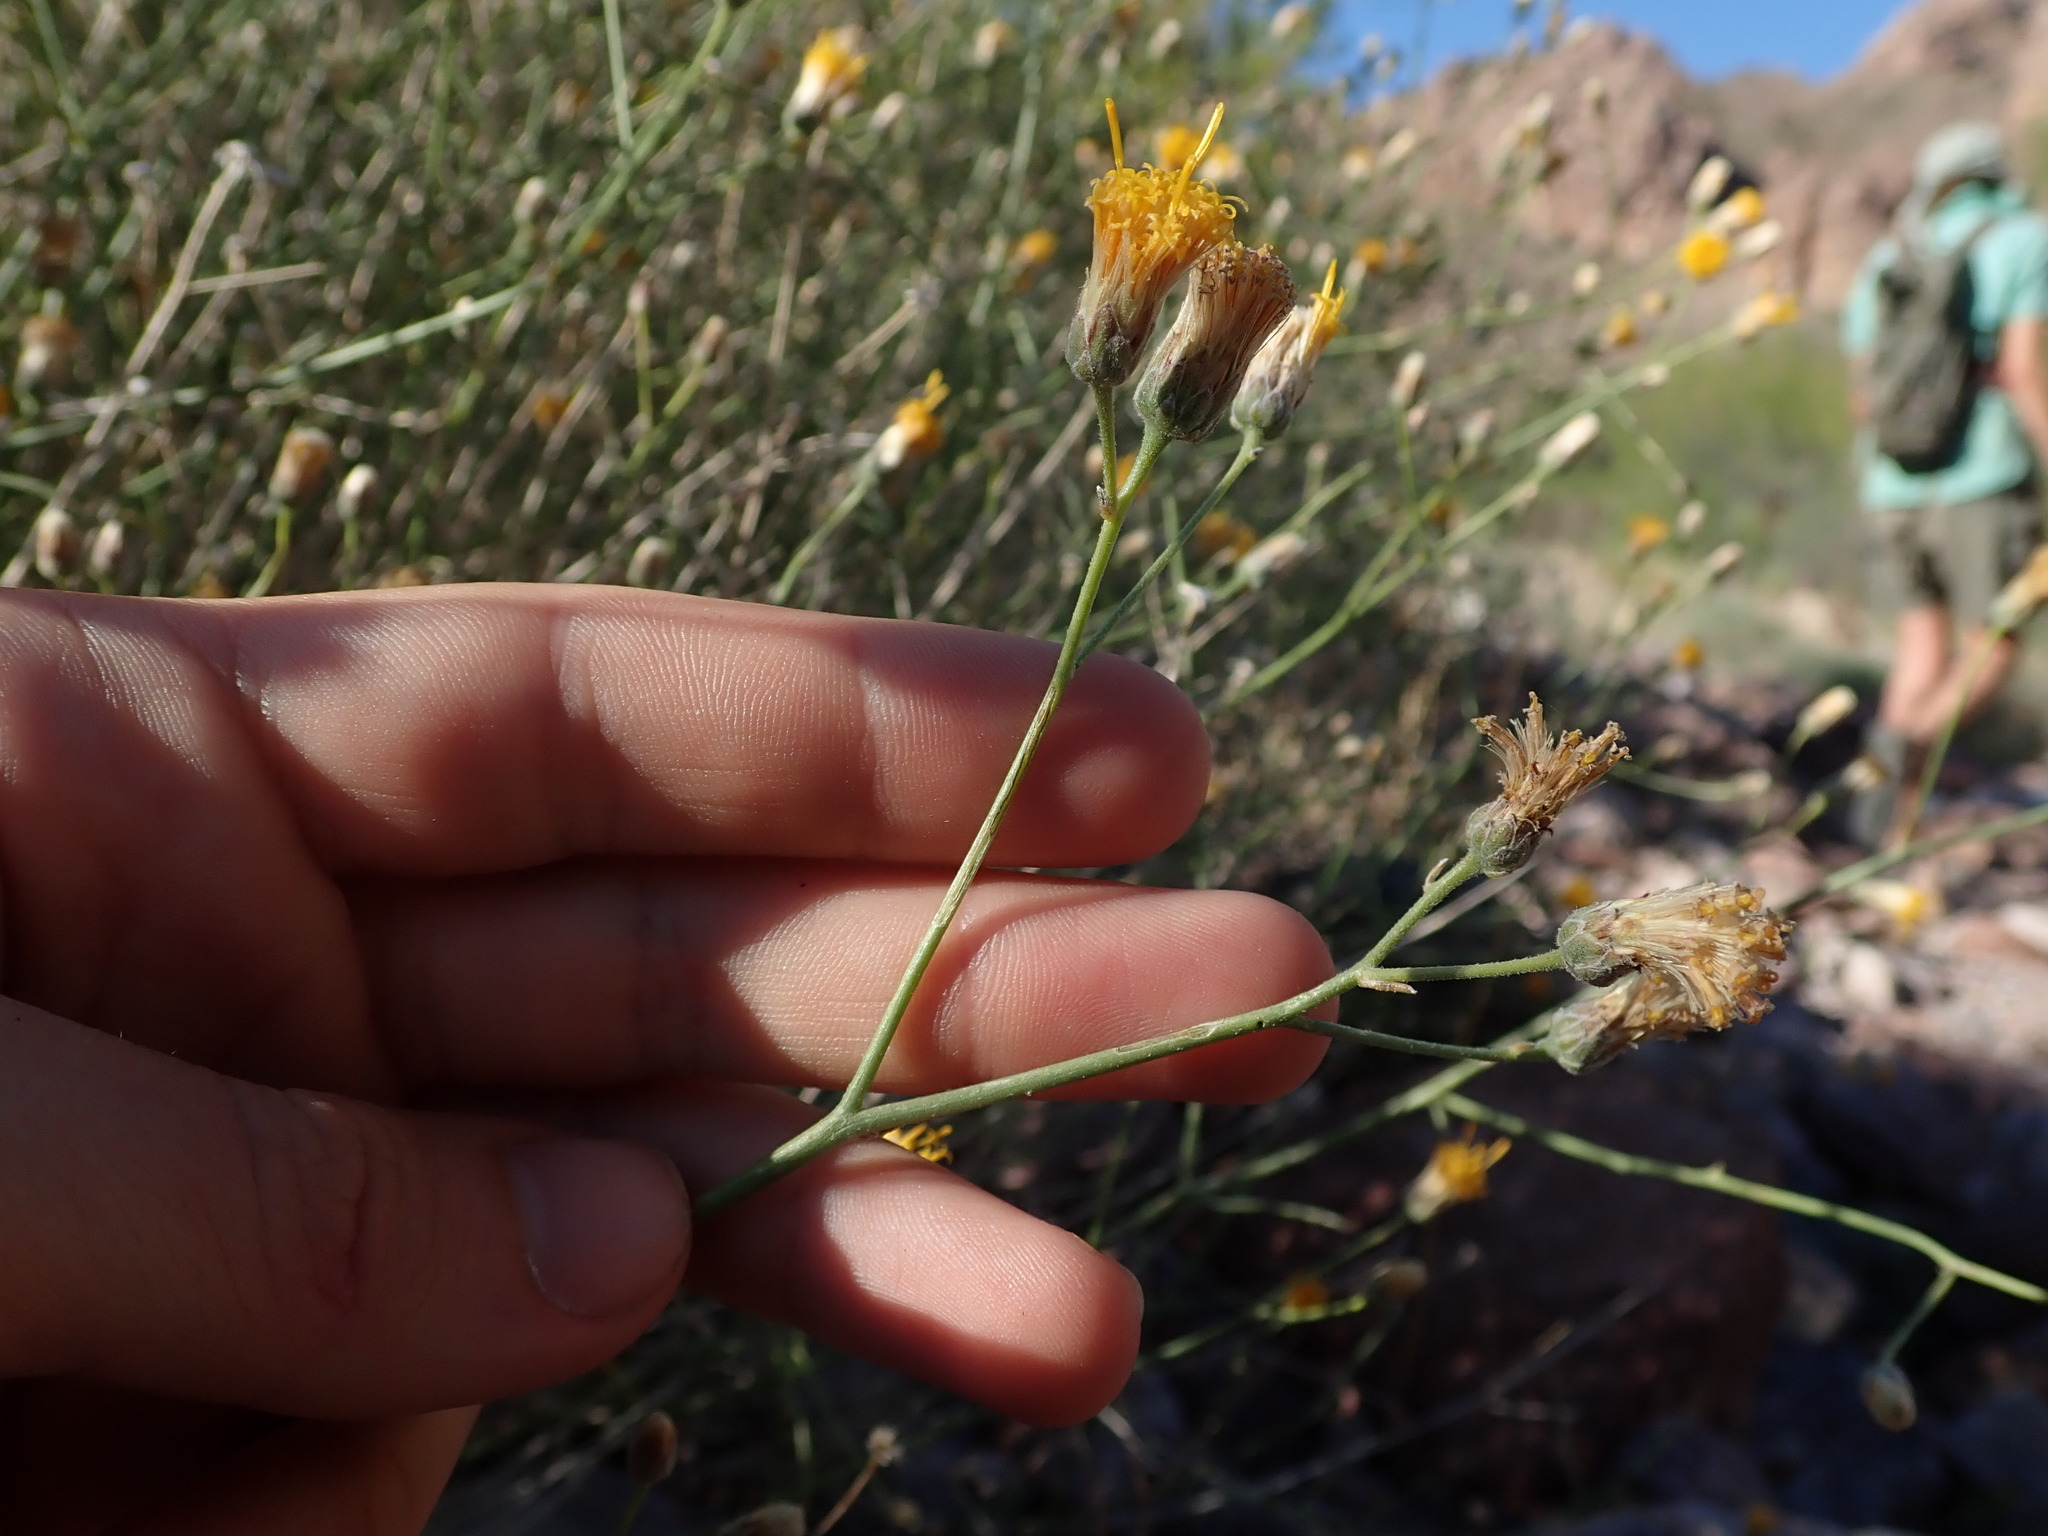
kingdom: Plantae
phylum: Tracheophyta
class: Magnoliopsida
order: Asterales
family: Asteraceae
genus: Bebbia
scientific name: Bebbia juncea
